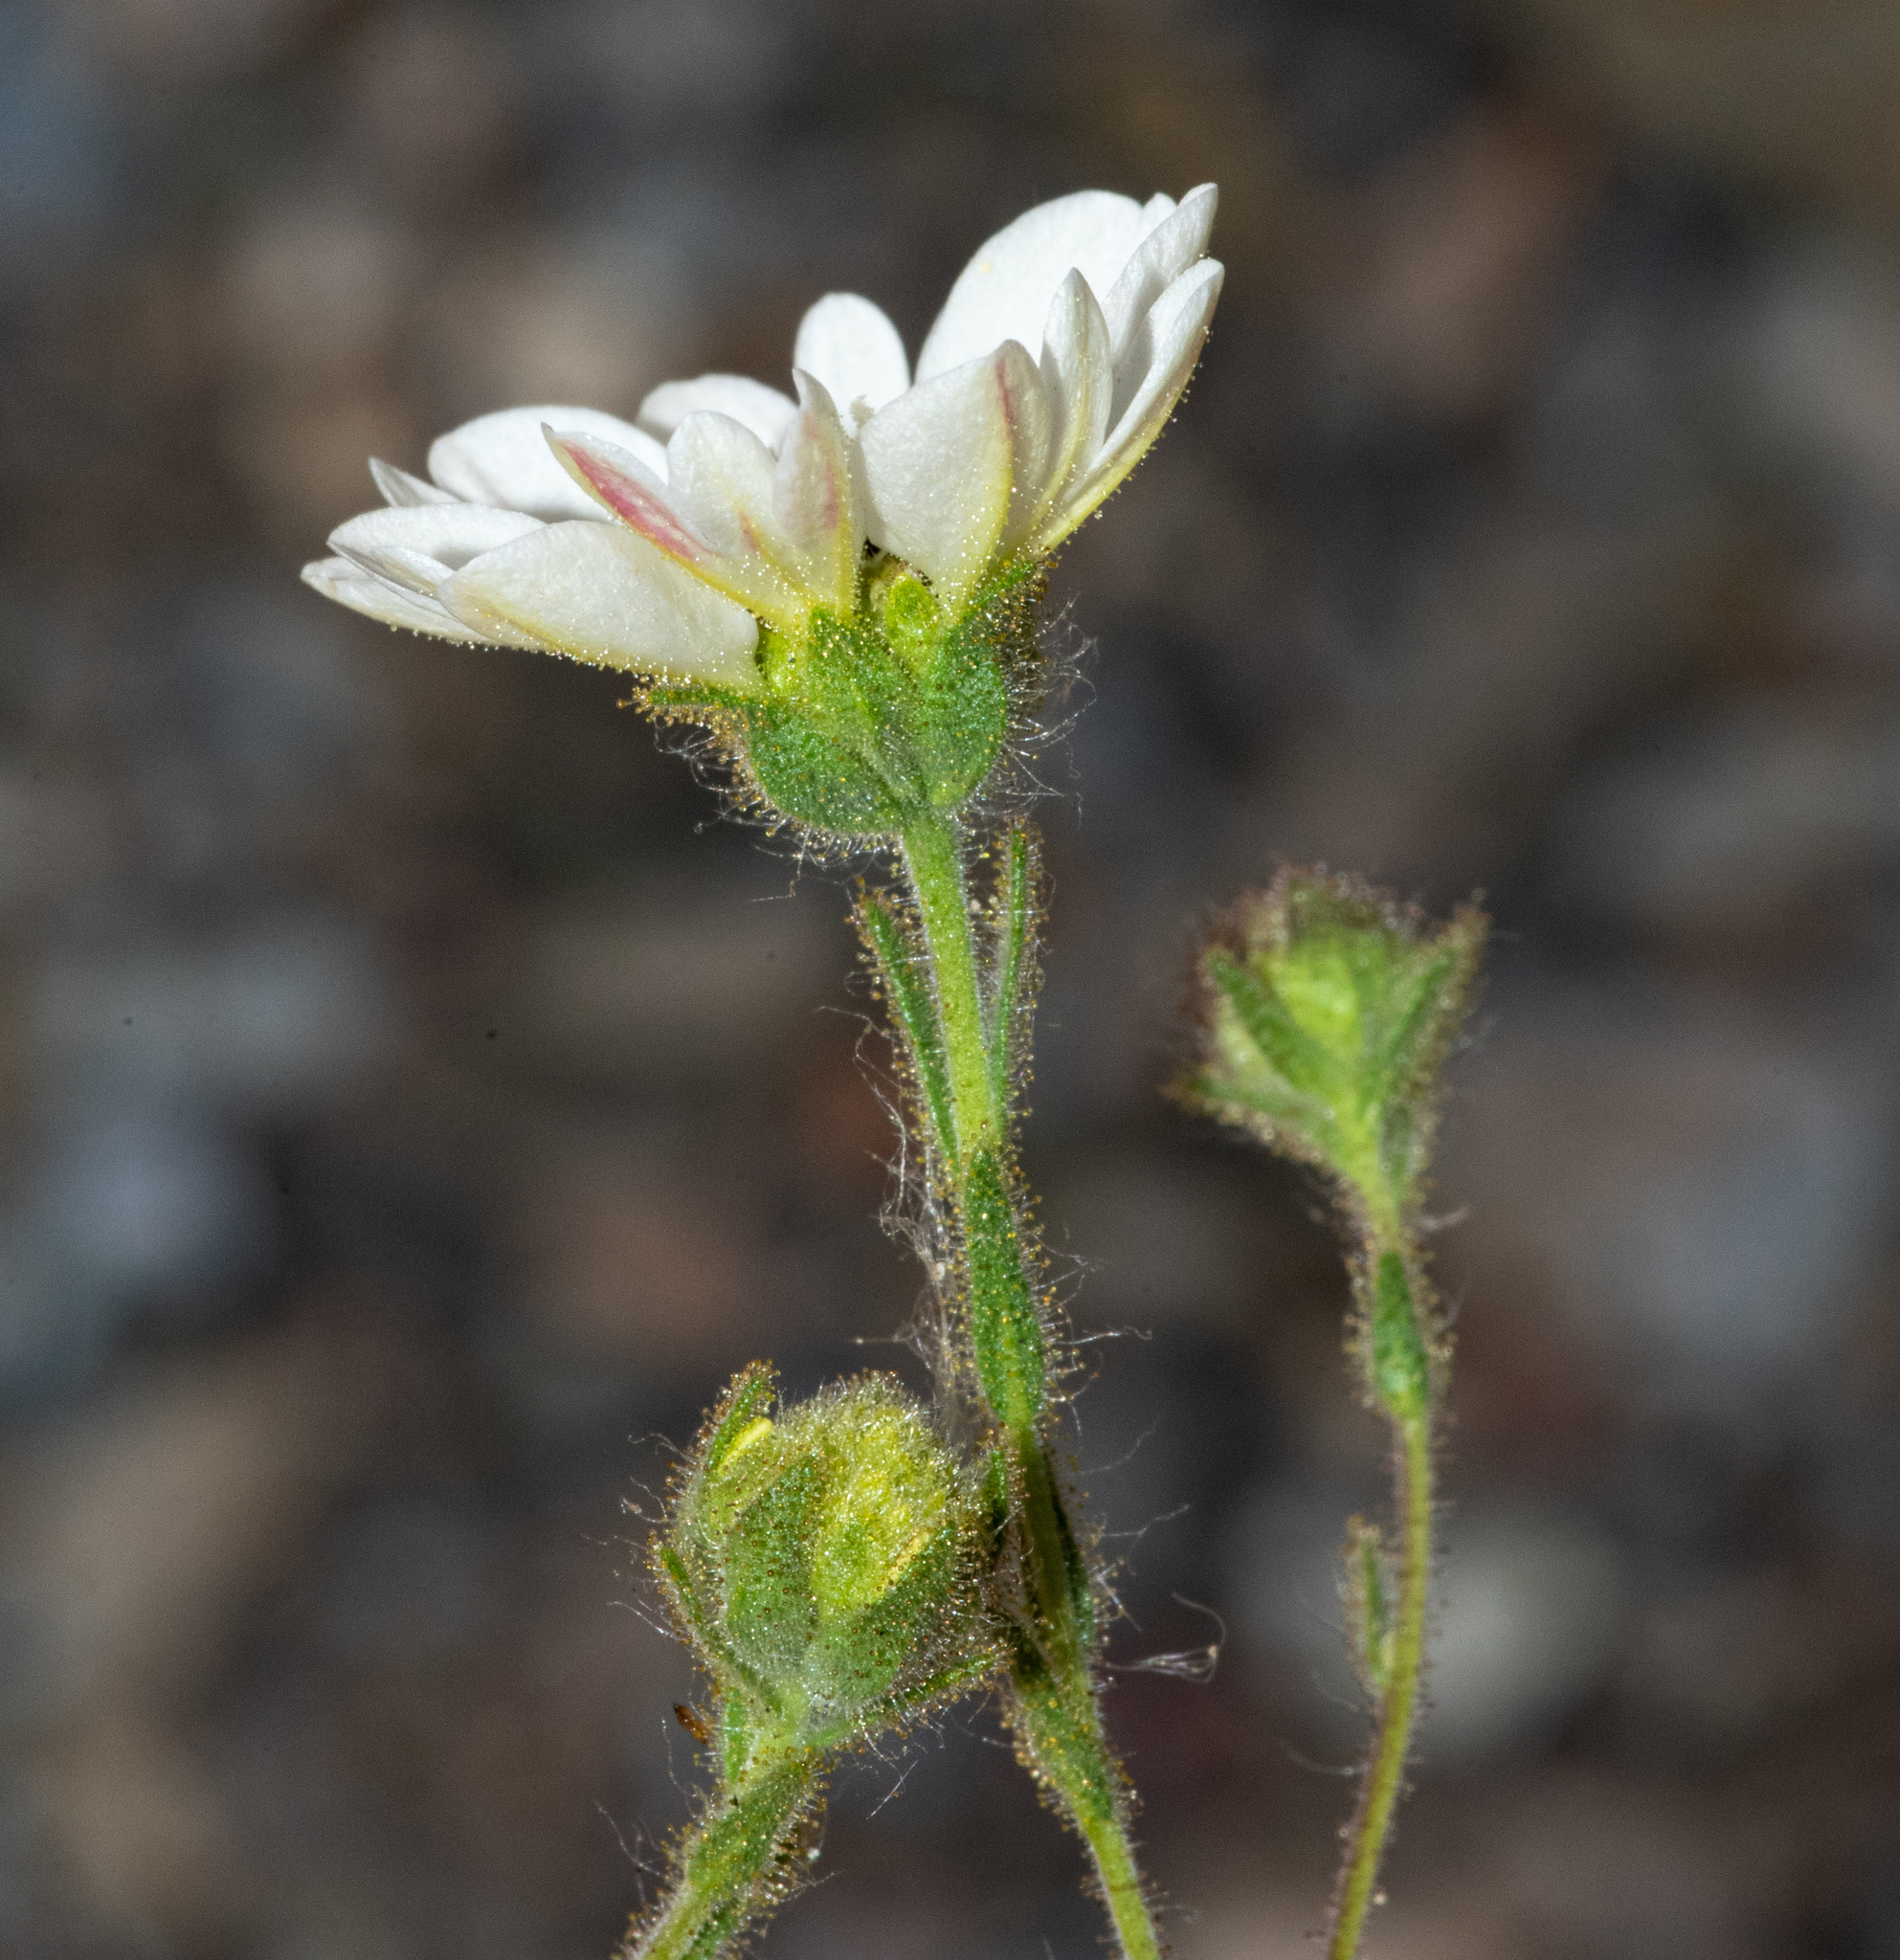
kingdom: Plantae
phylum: Tracheophyta
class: Magnoliopsida
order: Asterales
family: Asteraceae
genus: Hemizonia
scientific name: Hemizonia congesta
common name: Hayfield tarweed
